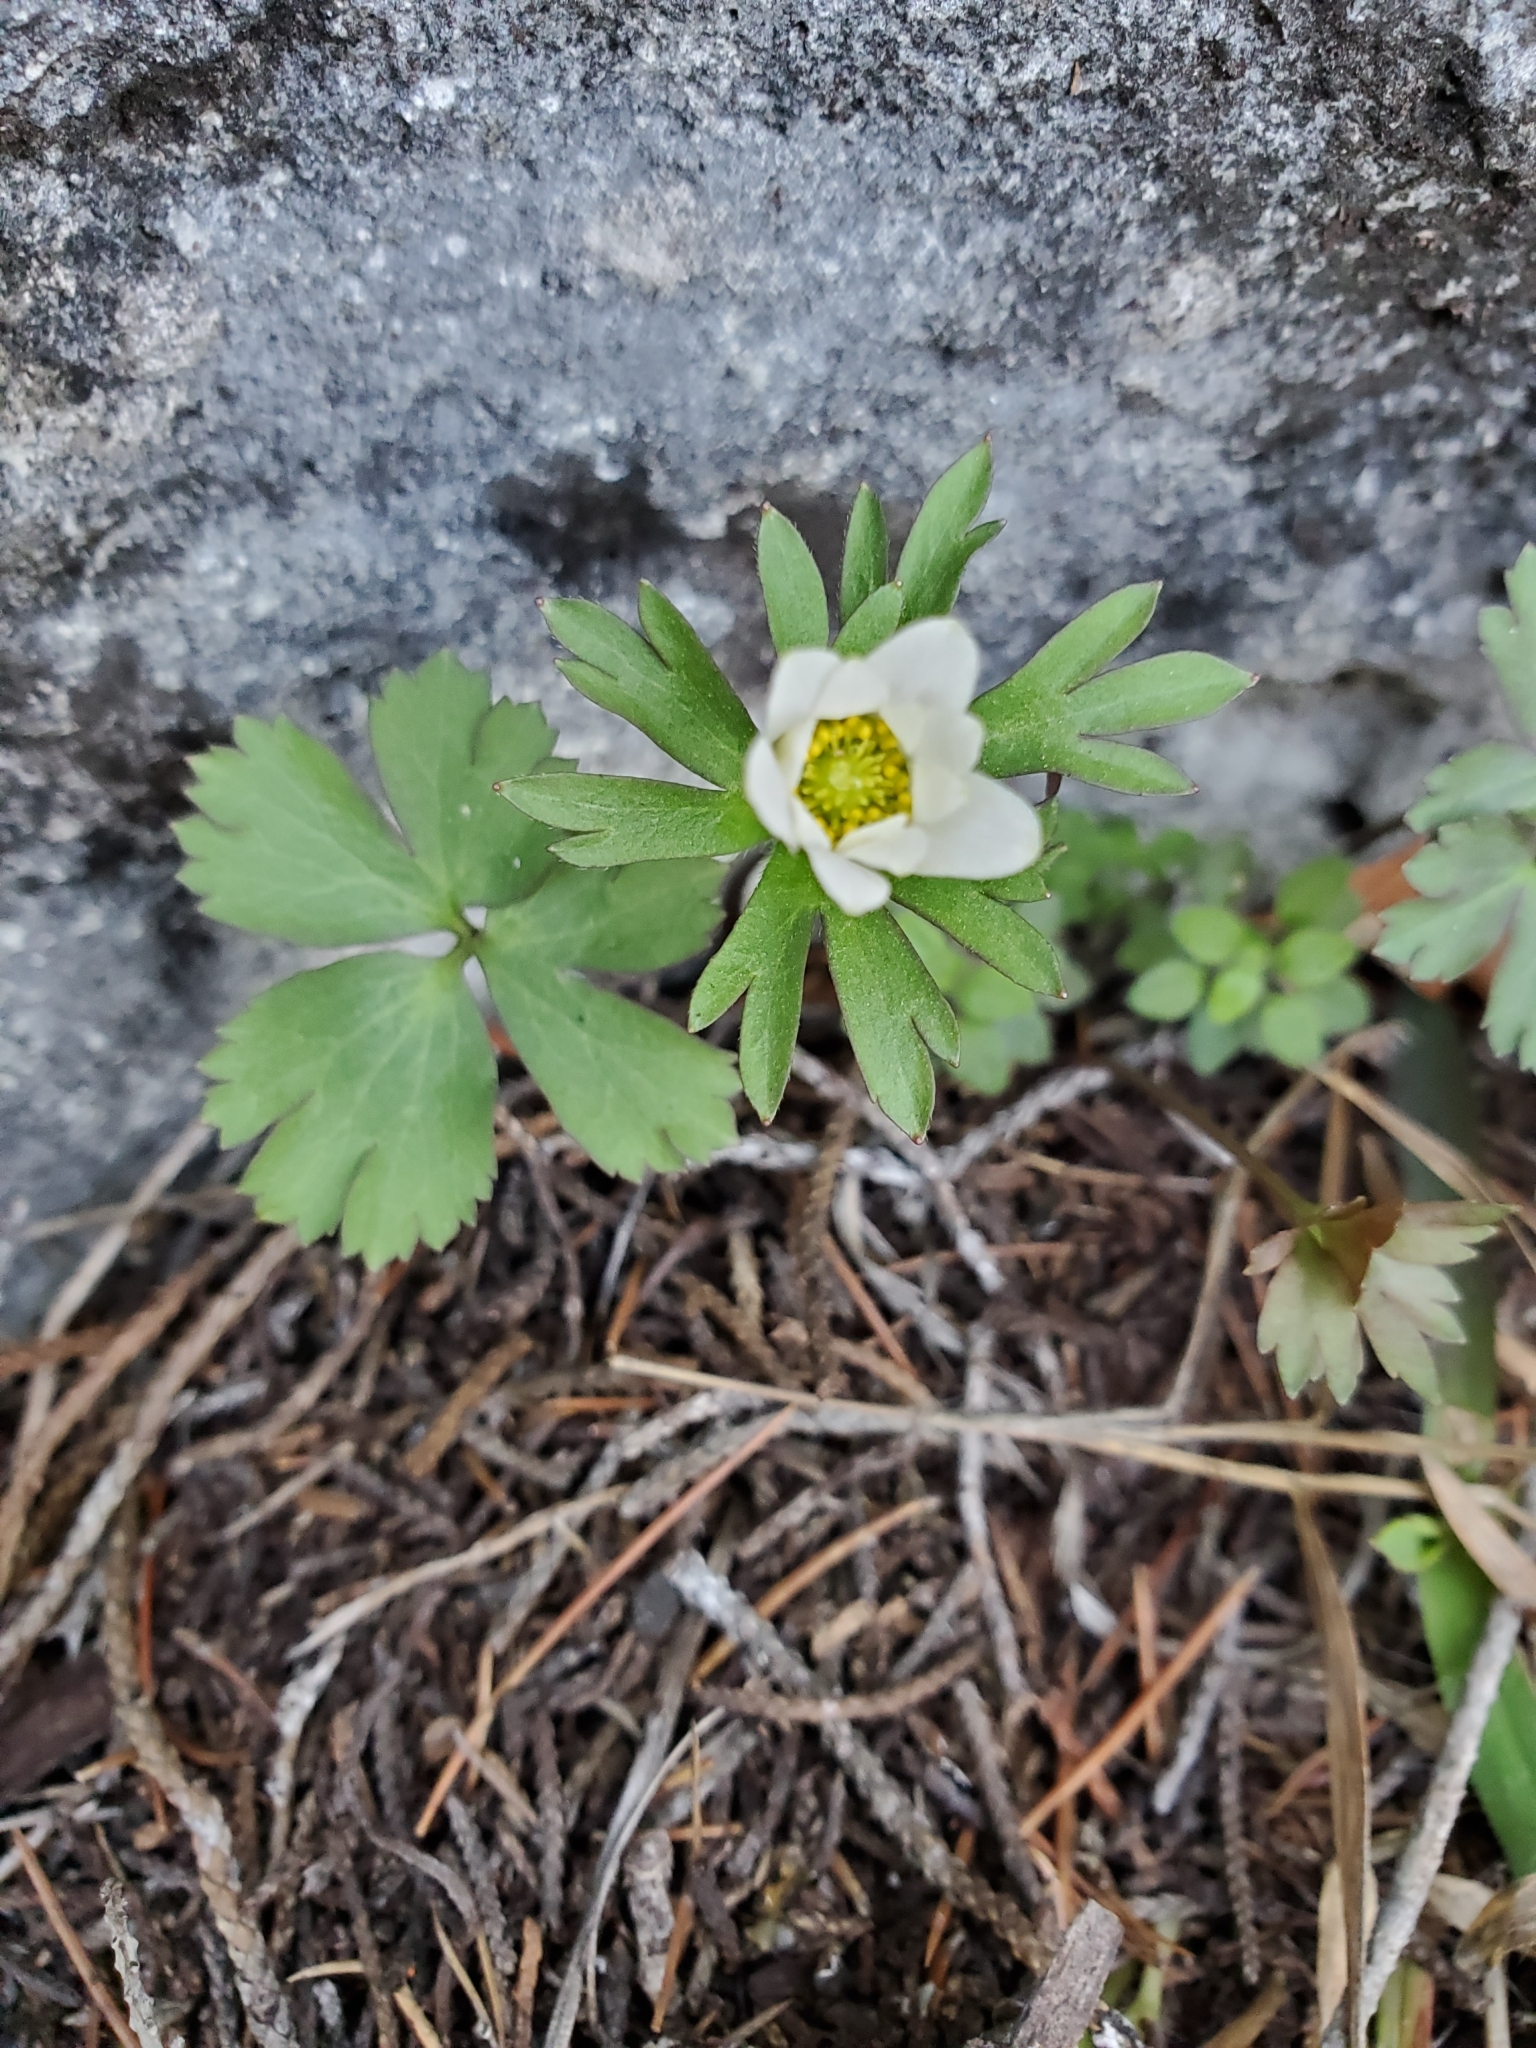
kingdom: Plantae
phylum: Tracheophyta
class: Magnoliopsida
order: Ranunculales
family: Ranunculaceae
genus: Anemone
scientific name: Anemone edwardsiana
